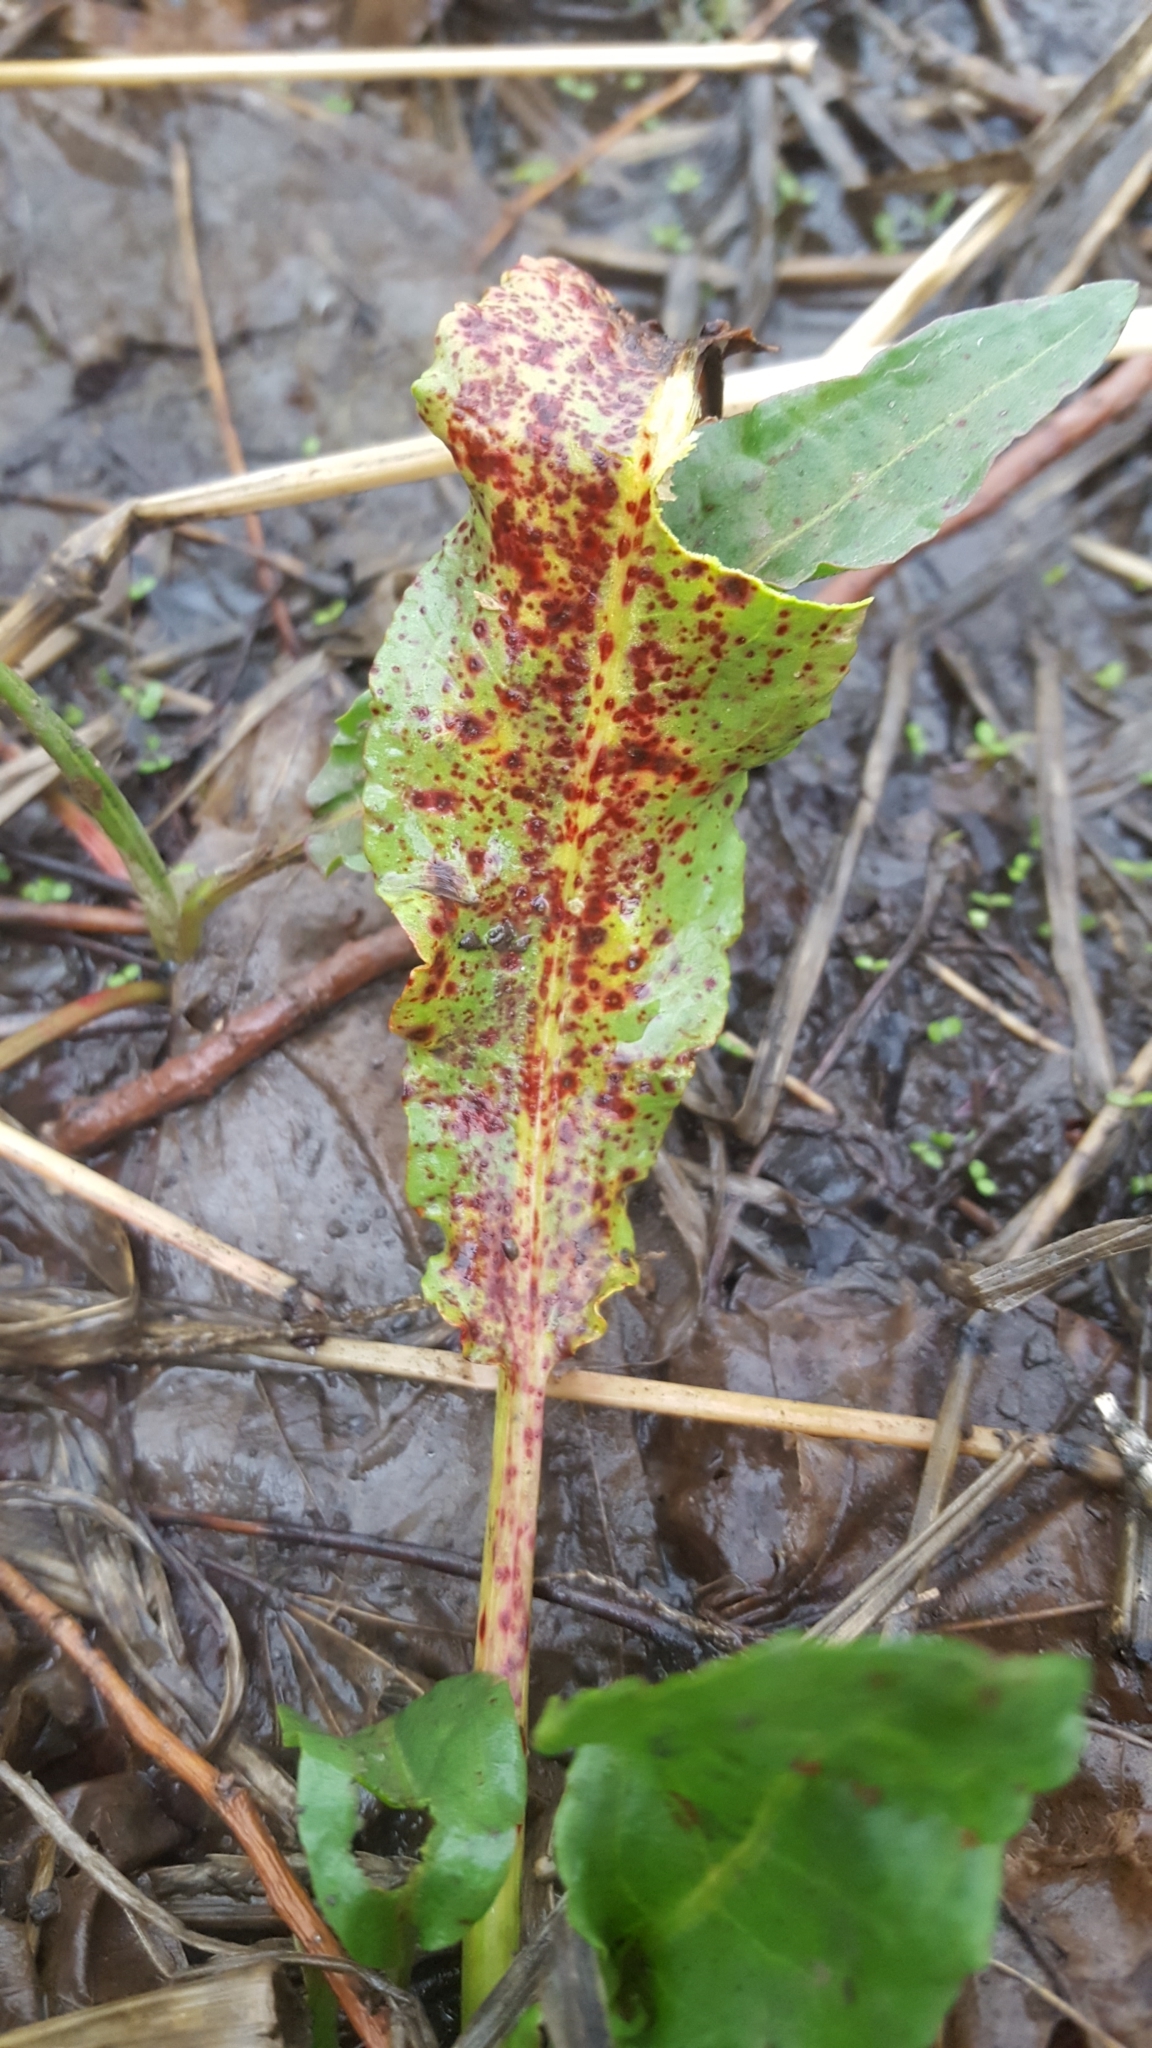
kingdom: Fungi
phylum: Ascomycota
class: Dothideomycetes
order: Mycosphaerellales
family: Mycosphaerellaceae
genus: Ramularia
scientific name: Ramularia rubella
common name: Red dock spot
